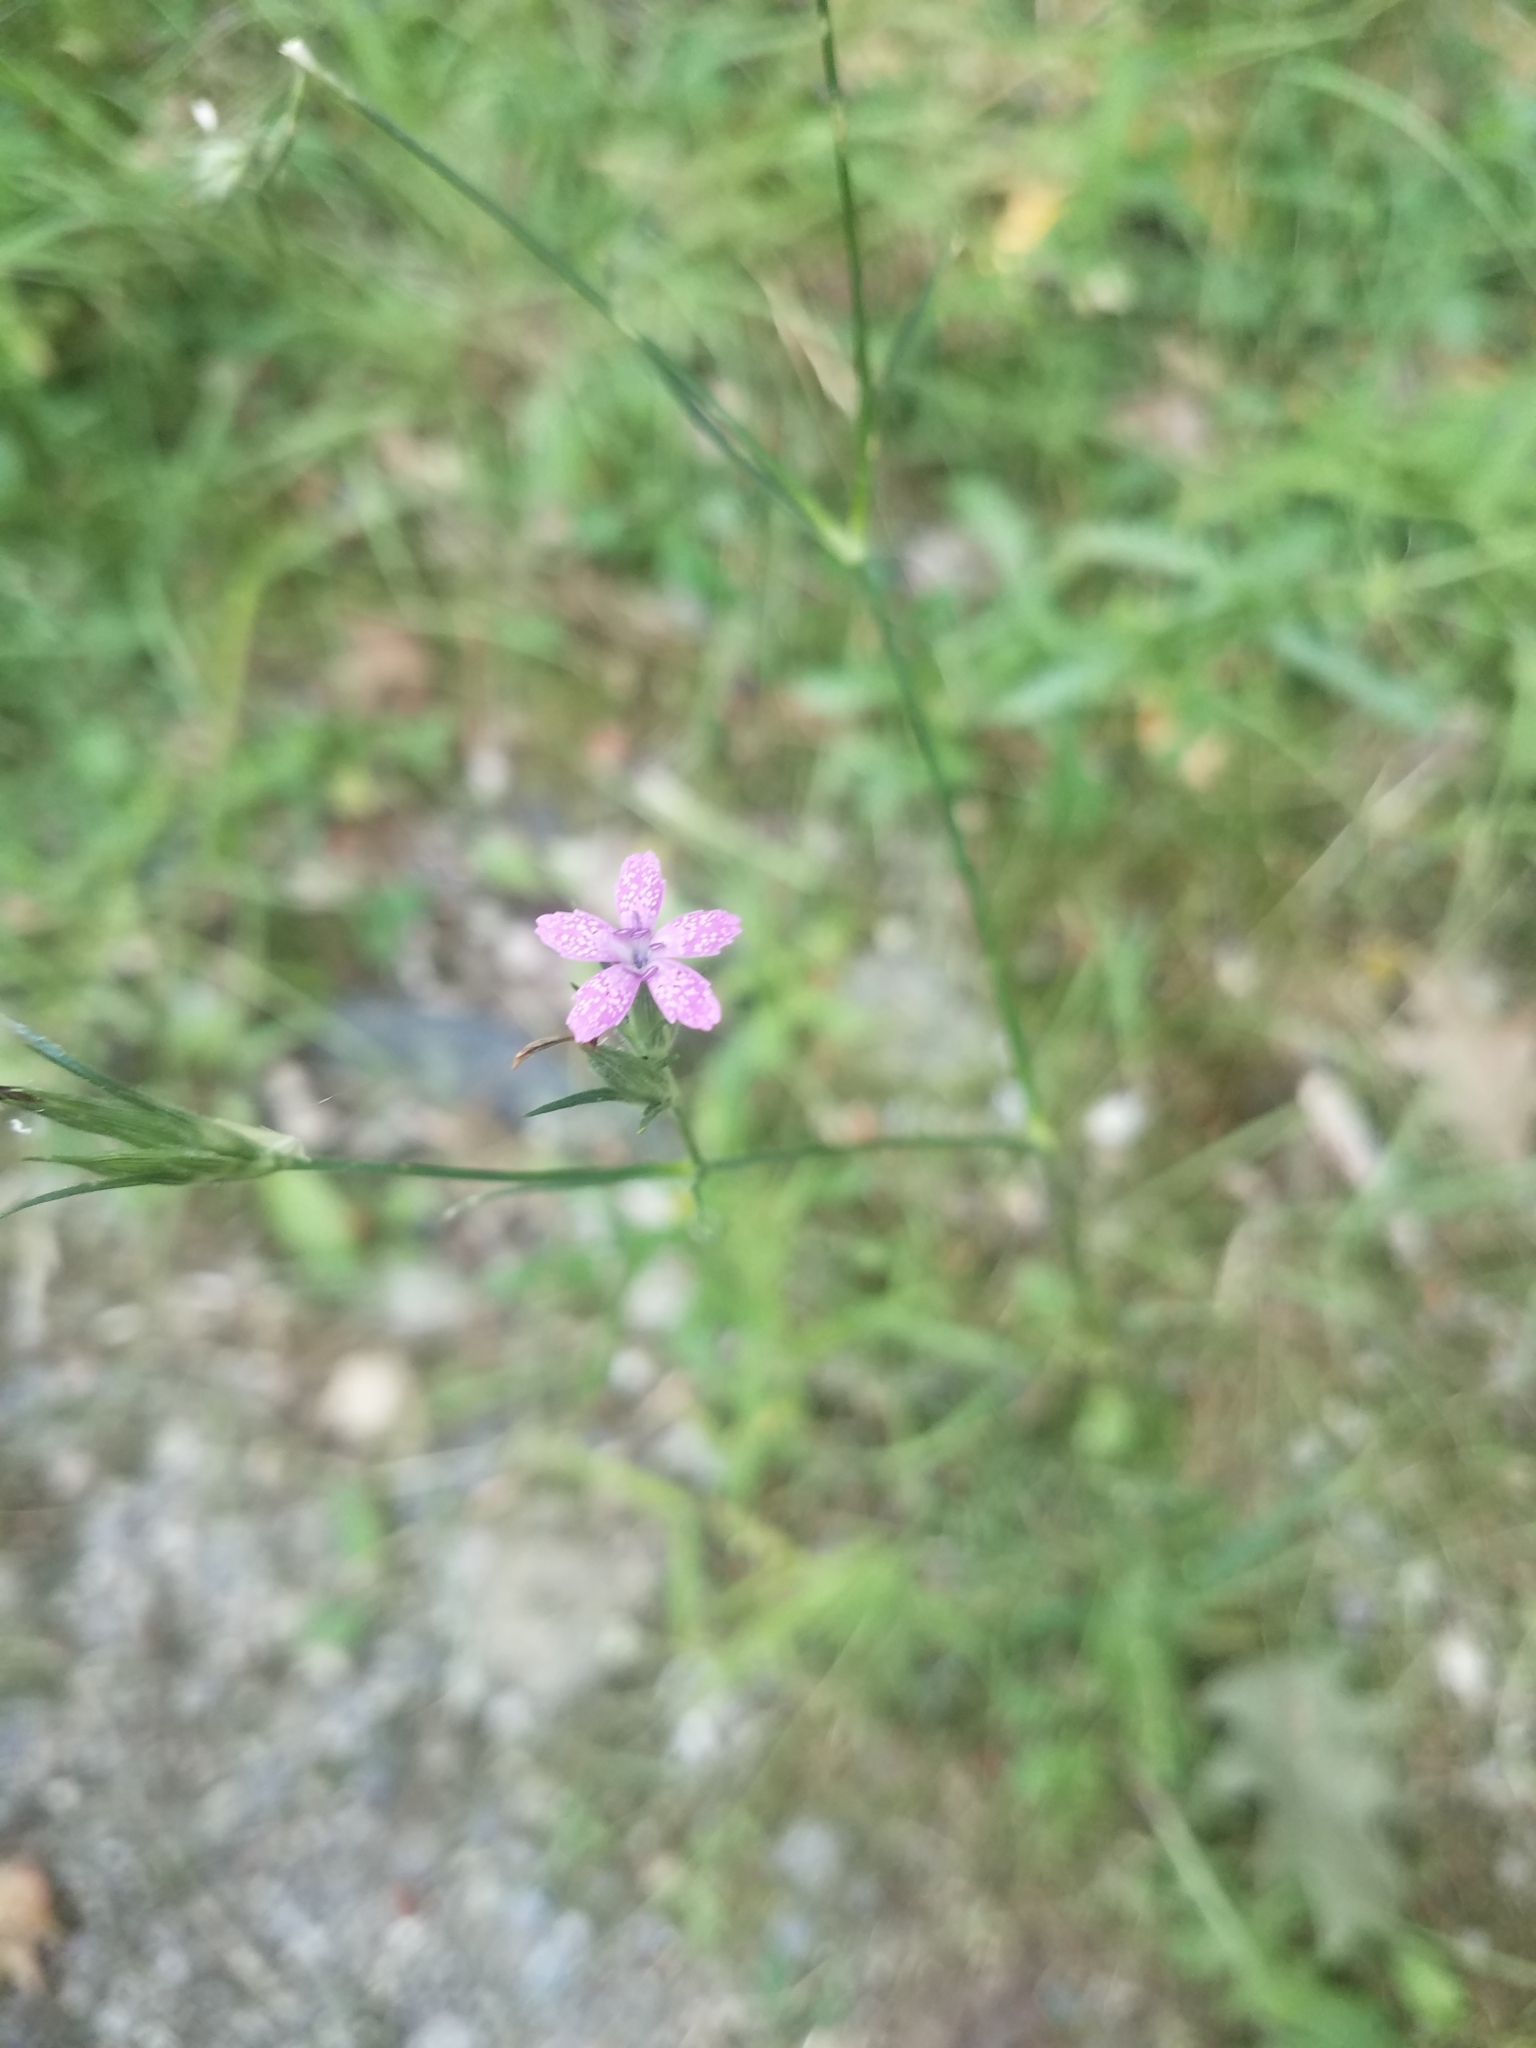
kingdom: Plantae
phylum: Tracheophyta
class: Magnoliopsida
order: Caryophyllales
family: Caryophyllaceae
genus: Dianthus
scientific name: Dianthus armeria
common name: Deptford pink
